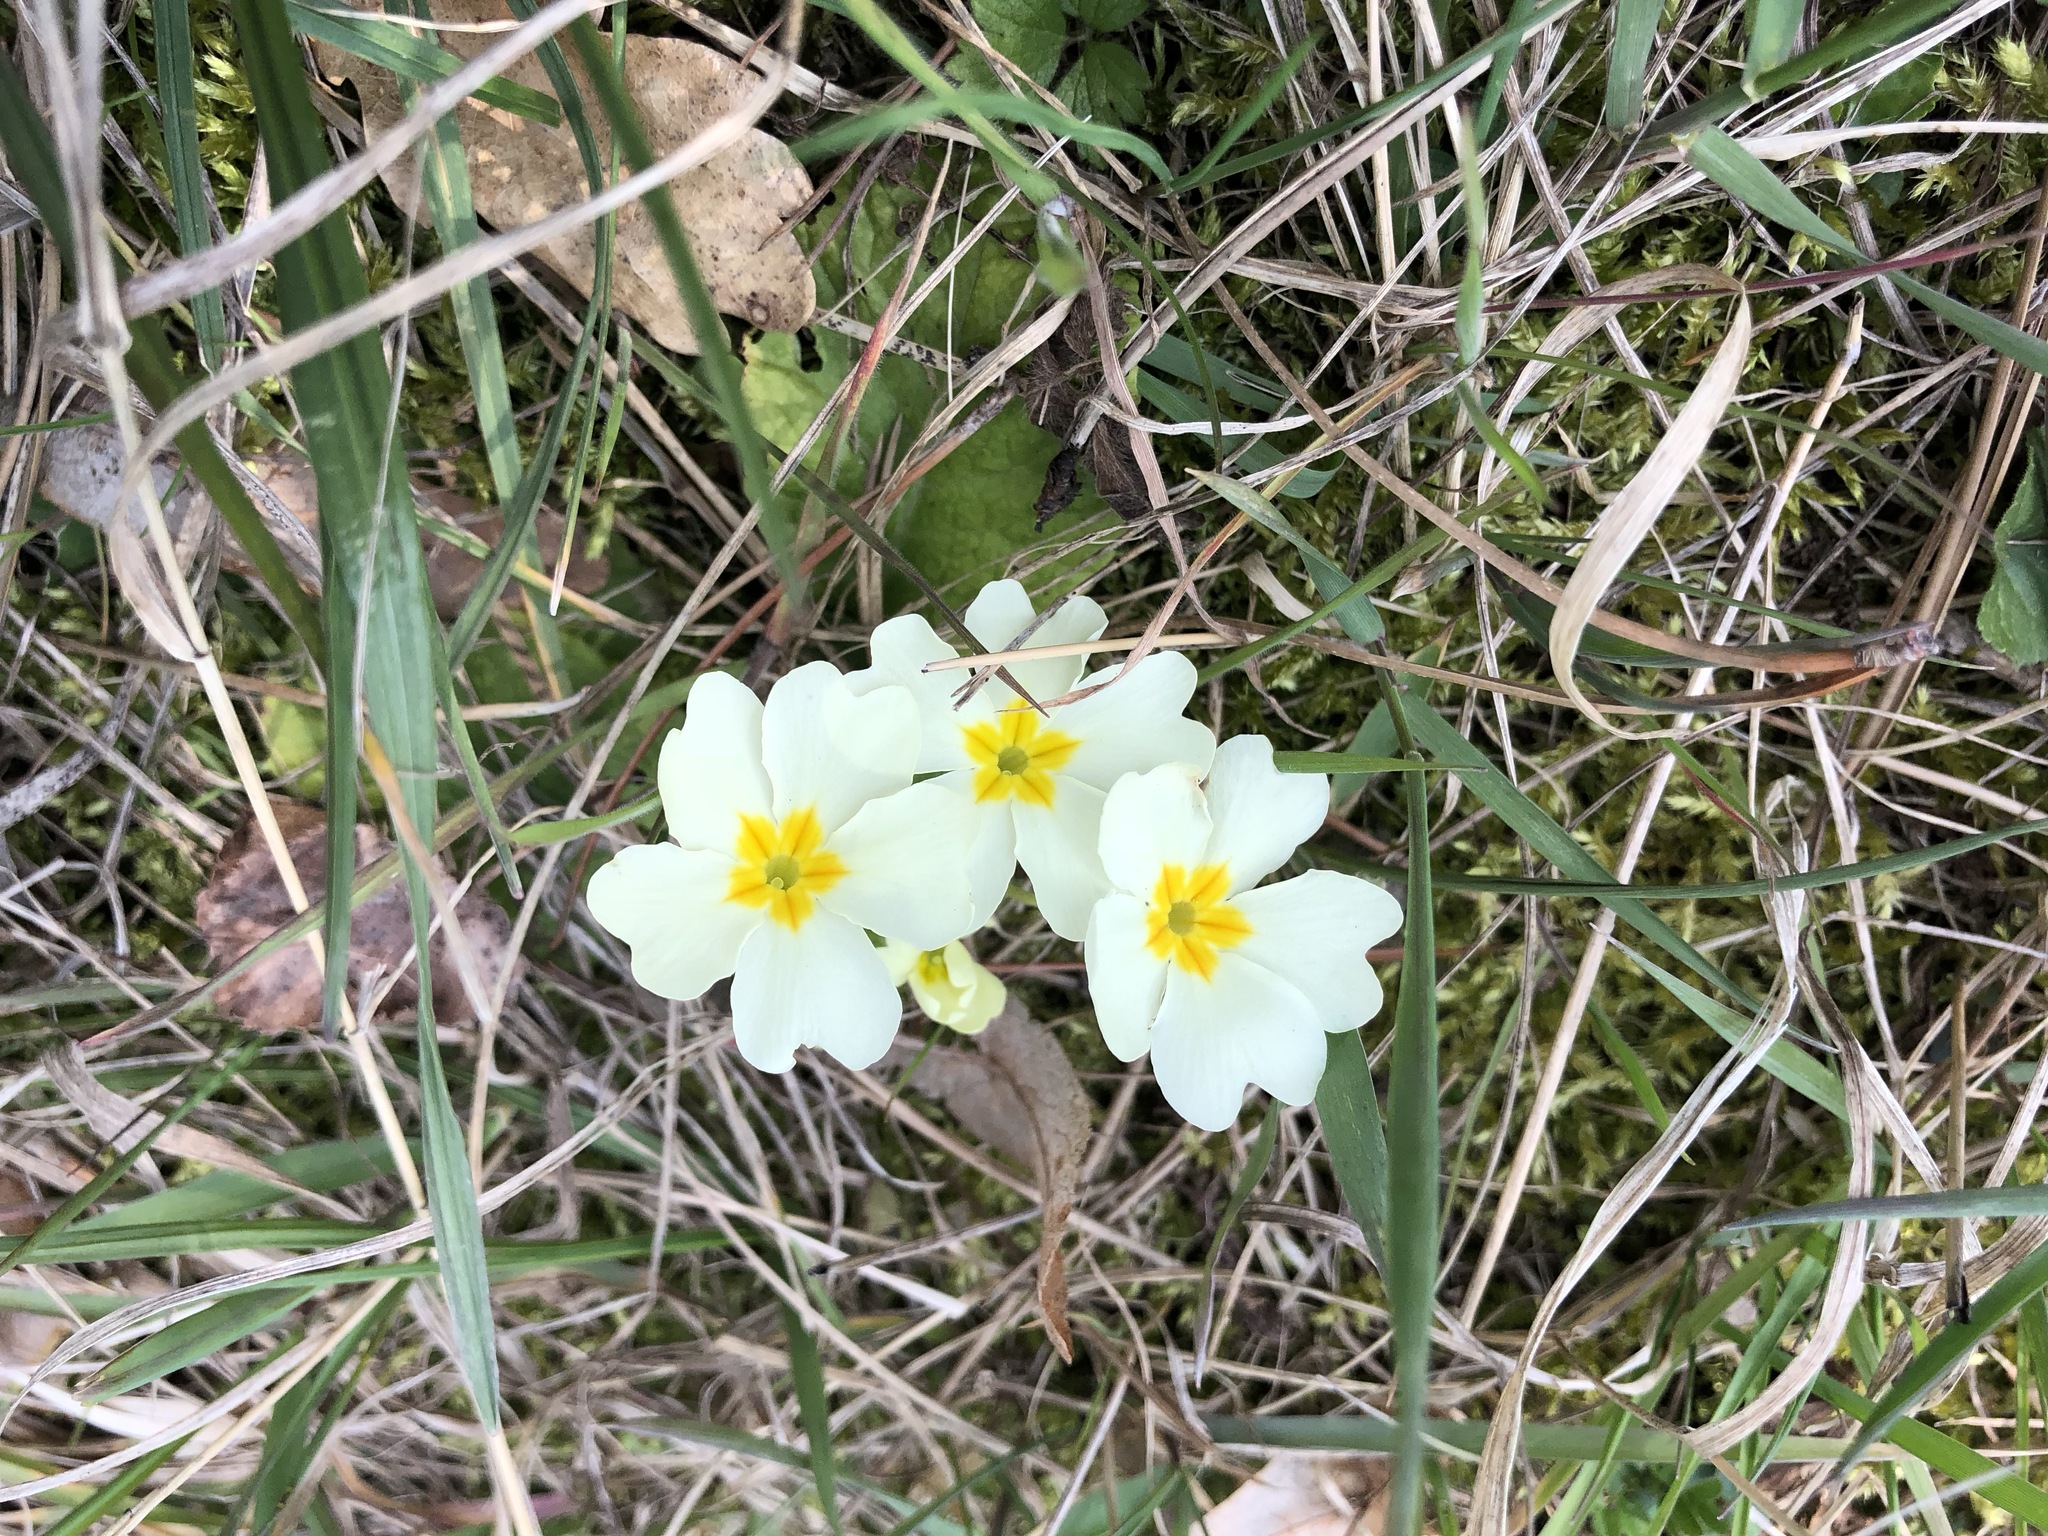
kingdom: Plantae
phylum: Tracheophyta
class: Magnoliopsida
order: Ericales
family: Primulaceae
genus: Primula
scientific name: Primula vulgaris
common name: Primrose
